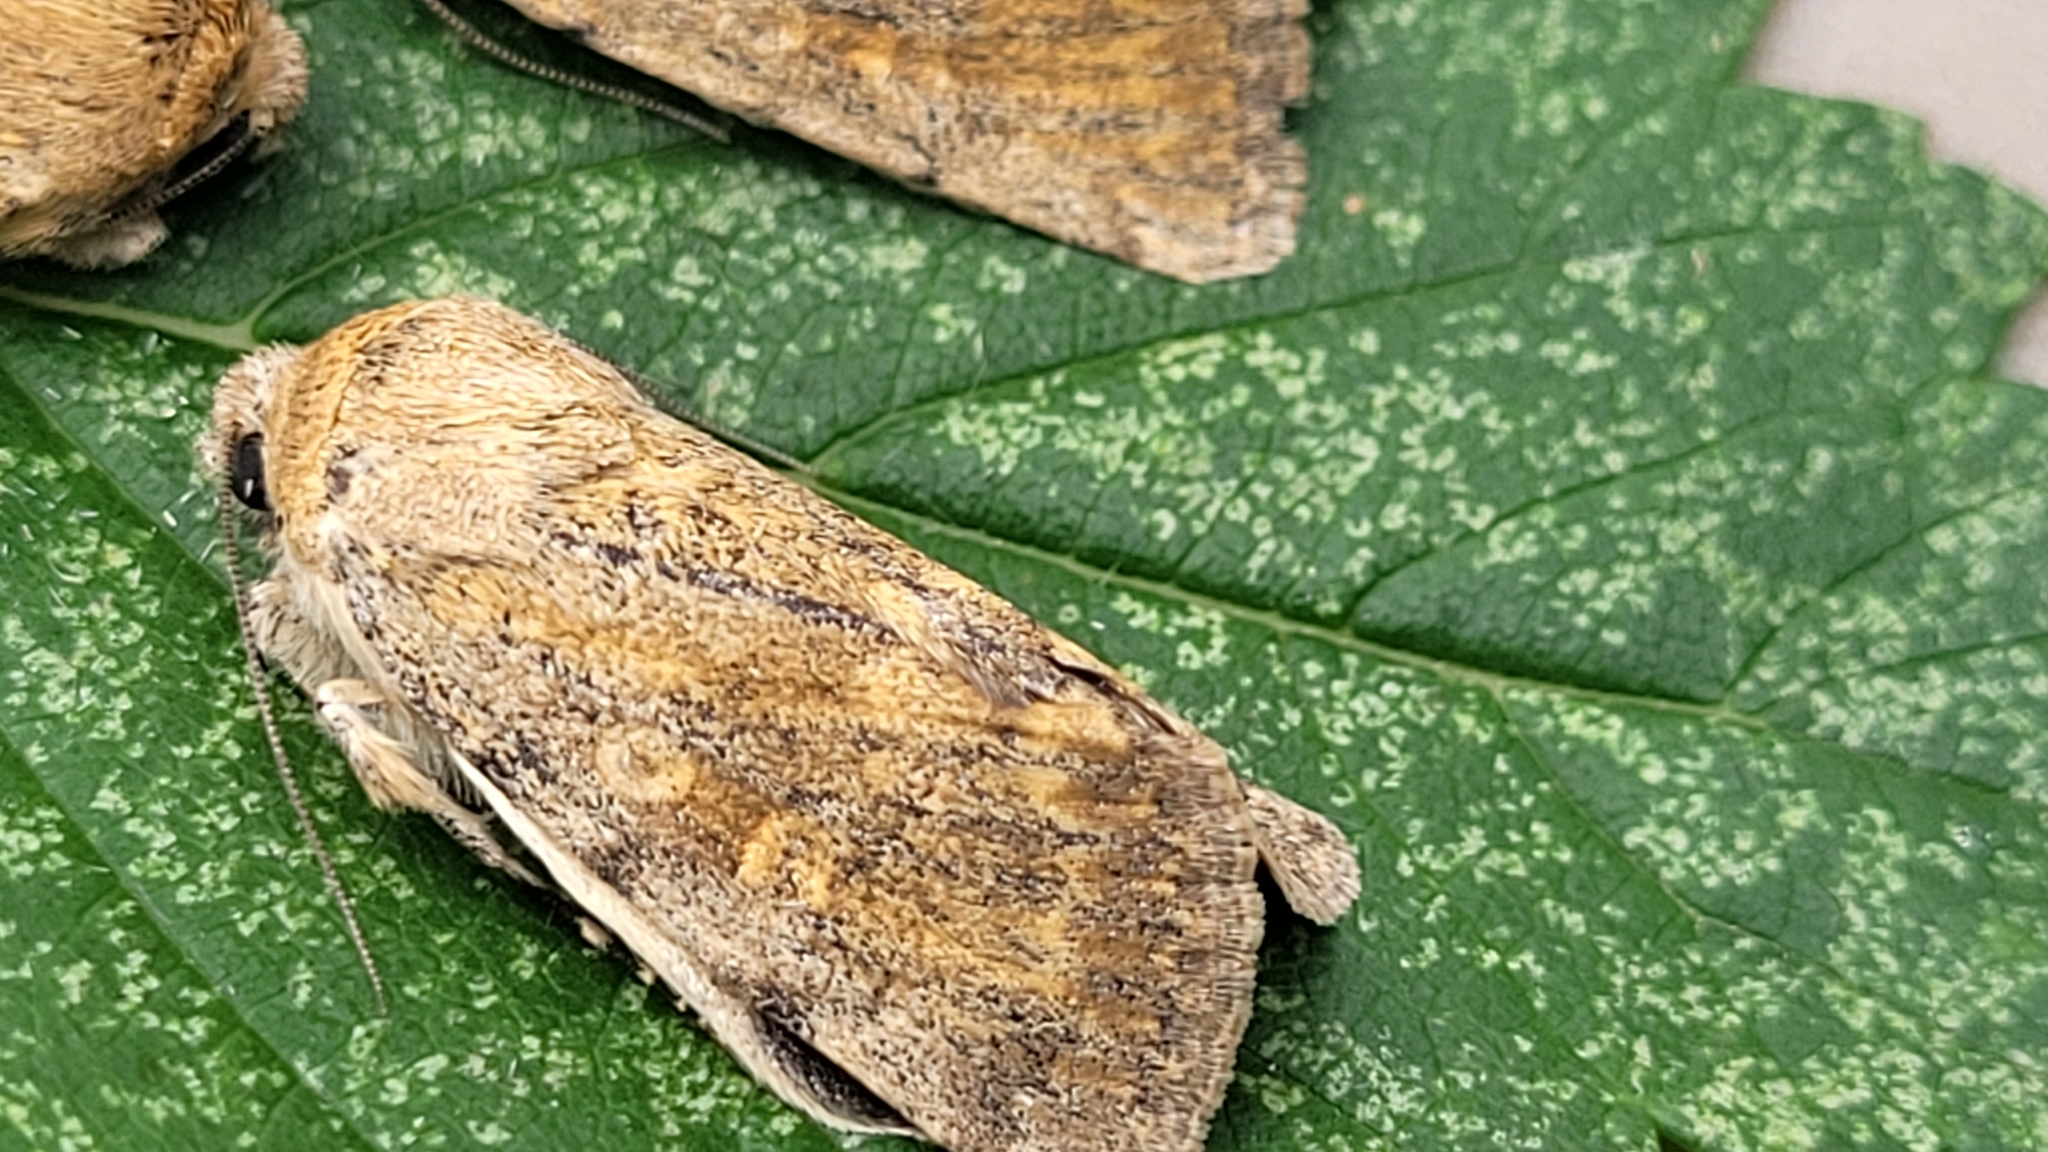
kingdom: Animalia
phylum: Arthropoda
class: Insecta
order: Lepidoptera
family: Noctuidae
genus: Sympistis
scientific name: Sympistis regina
